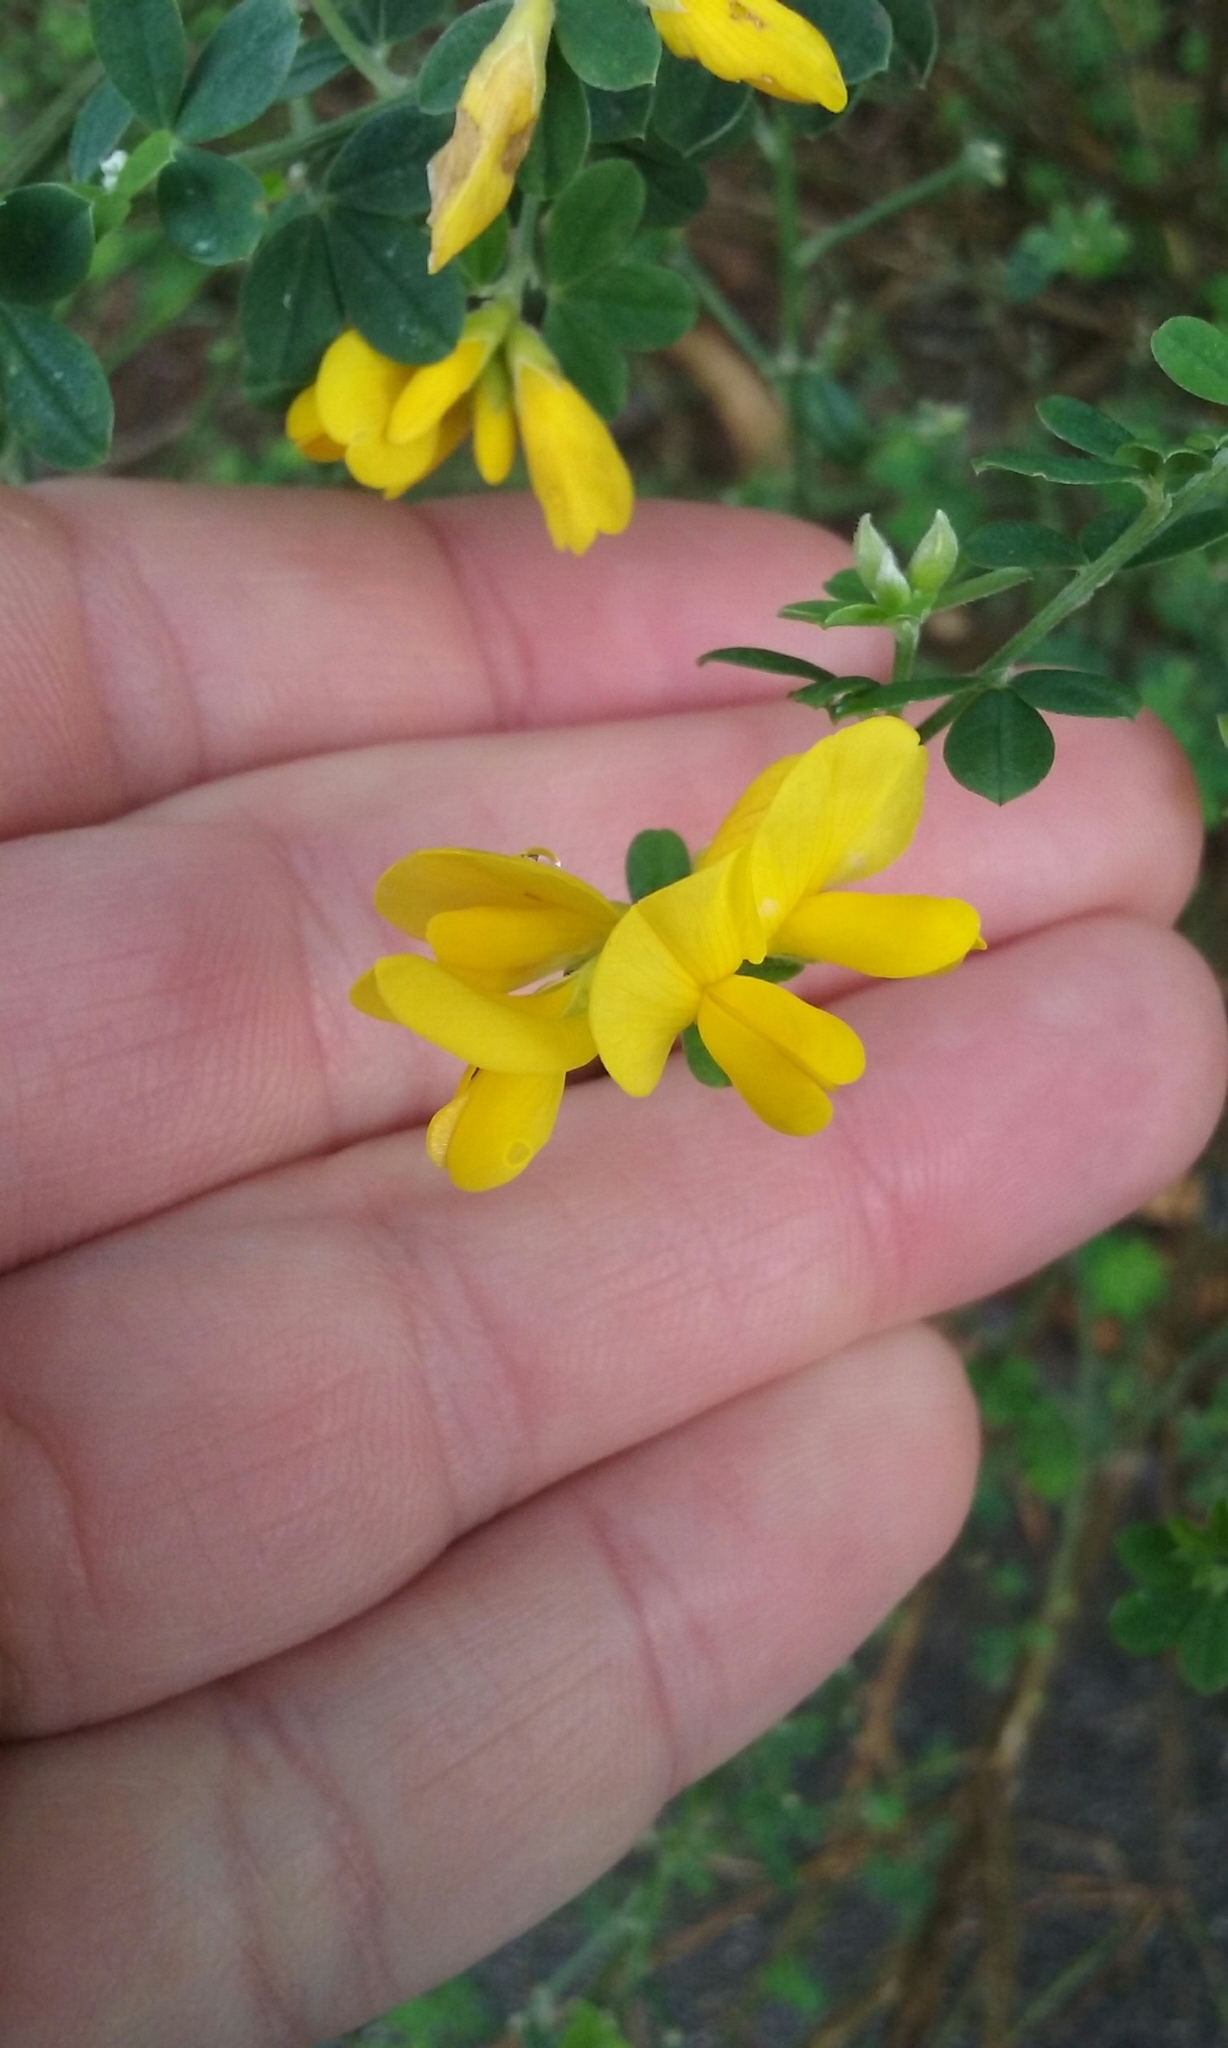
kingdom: Plantae
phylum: Tracheophyta
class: Magnoliopsida
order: Fabales
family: Fabaceae
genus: Genista
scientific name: Genista monspessulana
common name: Montpellier broom
